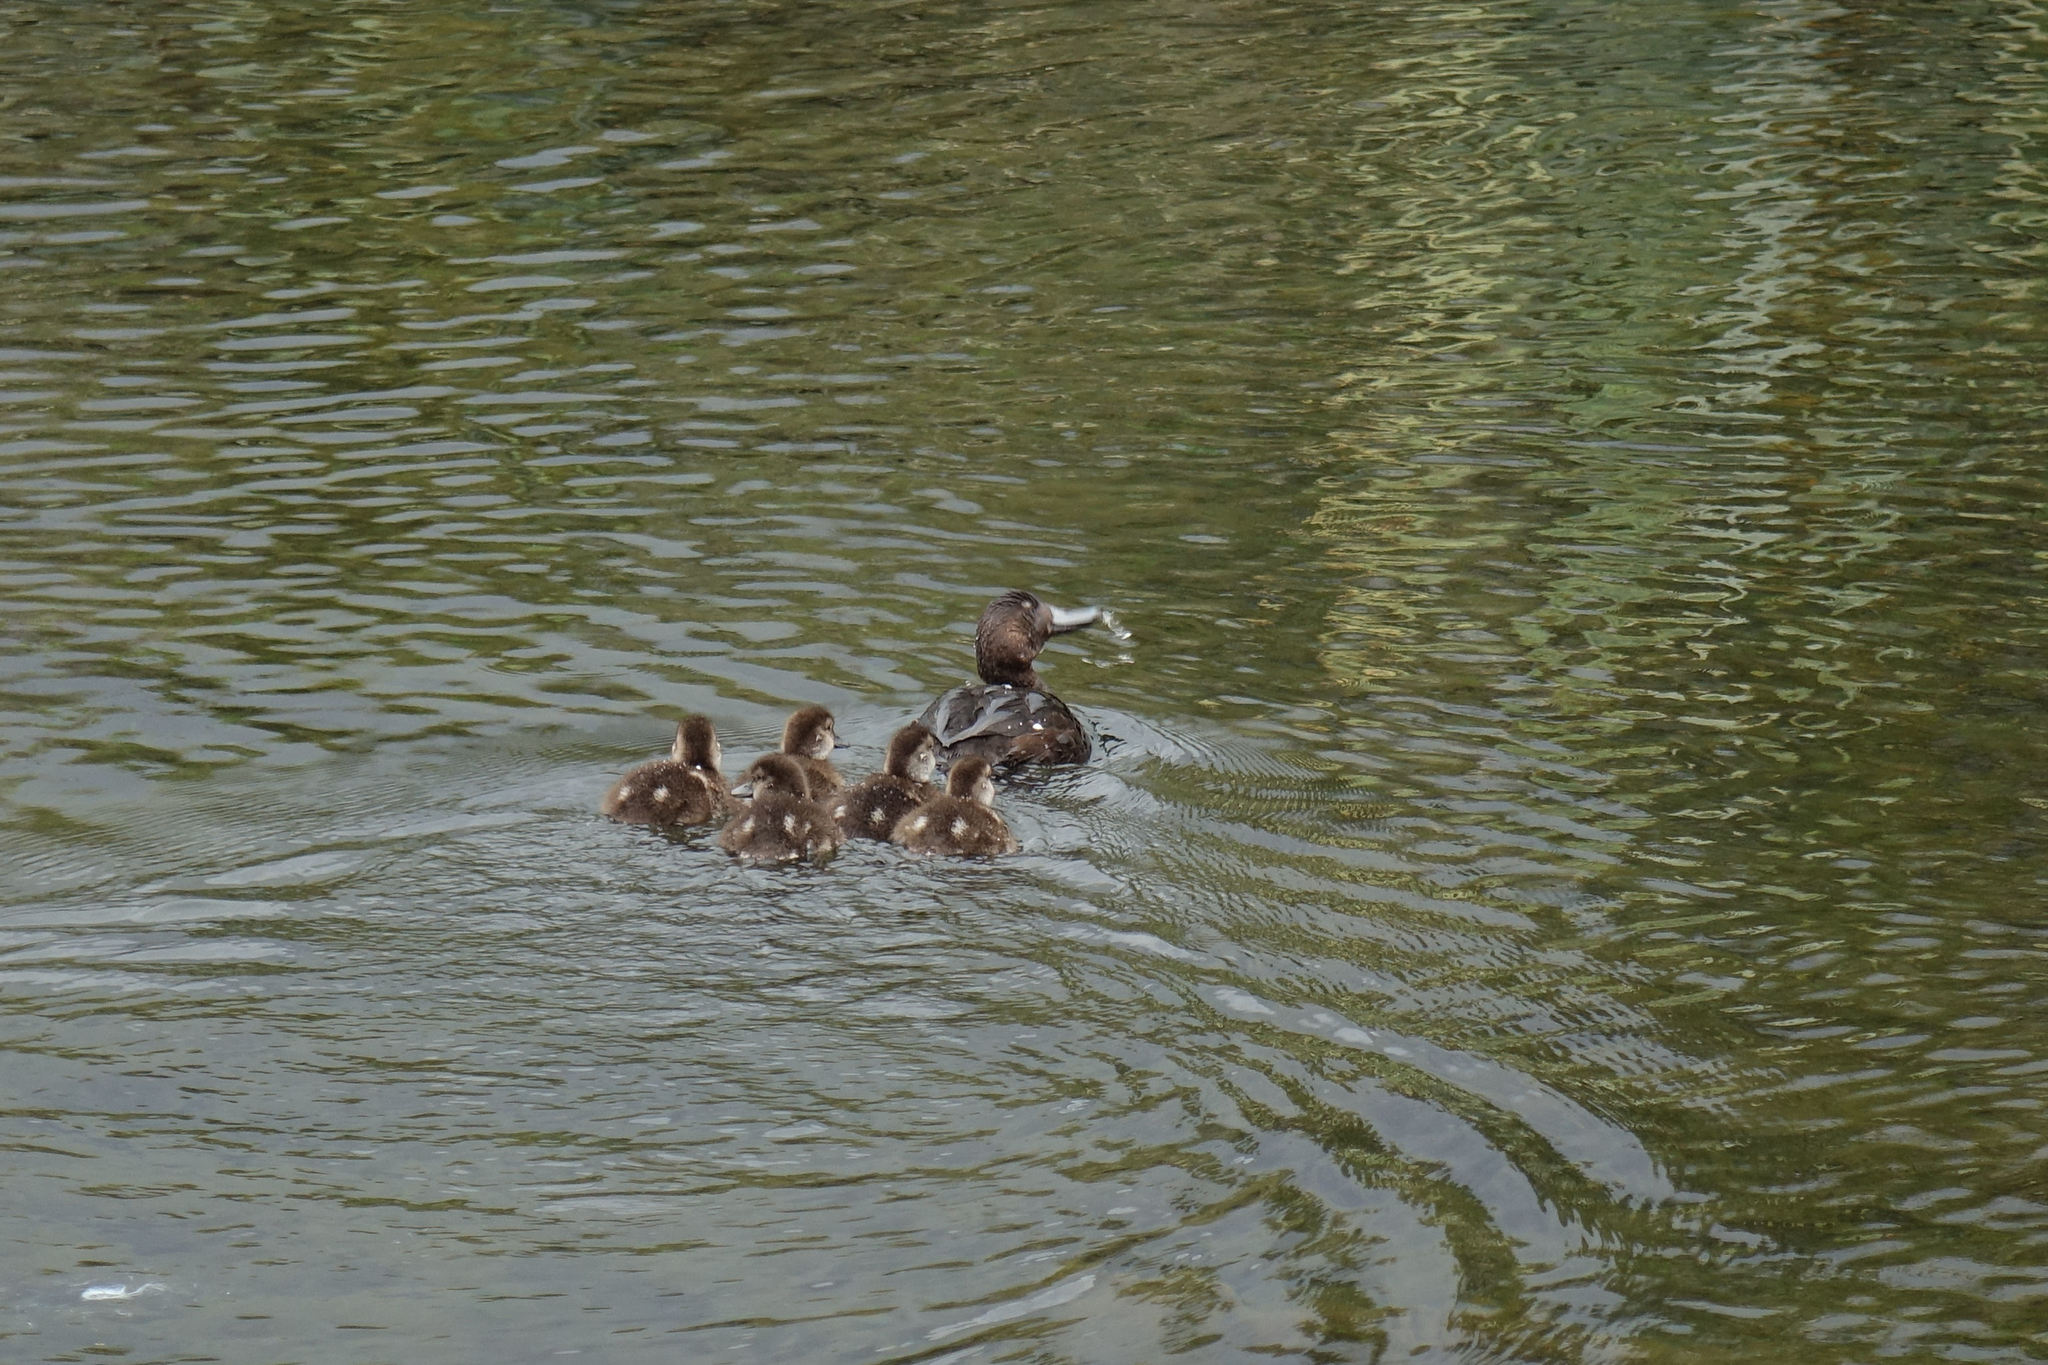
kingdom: Animalia
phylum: Chordata
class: Aves
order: Anseriformes
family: Anatidae
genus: Aythya
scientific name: Aythya novaeseelandiae
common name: New zealand scaup
